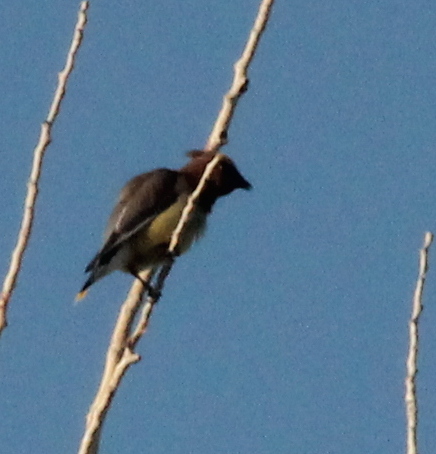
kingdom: Animalia
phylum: Chordata
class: Aves
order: Passeriformes
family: Bombycillidae
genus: Bombycilla
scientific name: Bombycilla cedrorum
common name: Cedar waxwing
